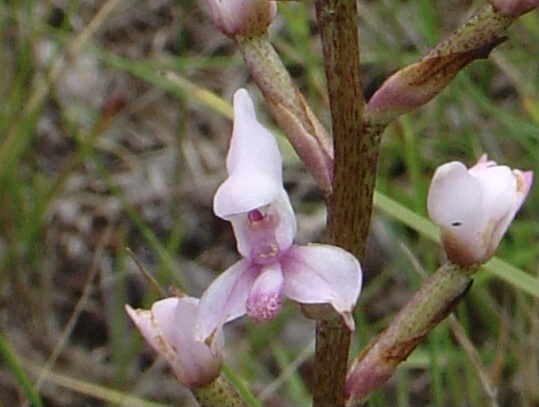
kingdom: Plantae
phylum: Tracheophyta
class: Liliopsida
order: Asparagales
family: Orchidaceae
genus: Disa
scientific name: Disa aconitoides
